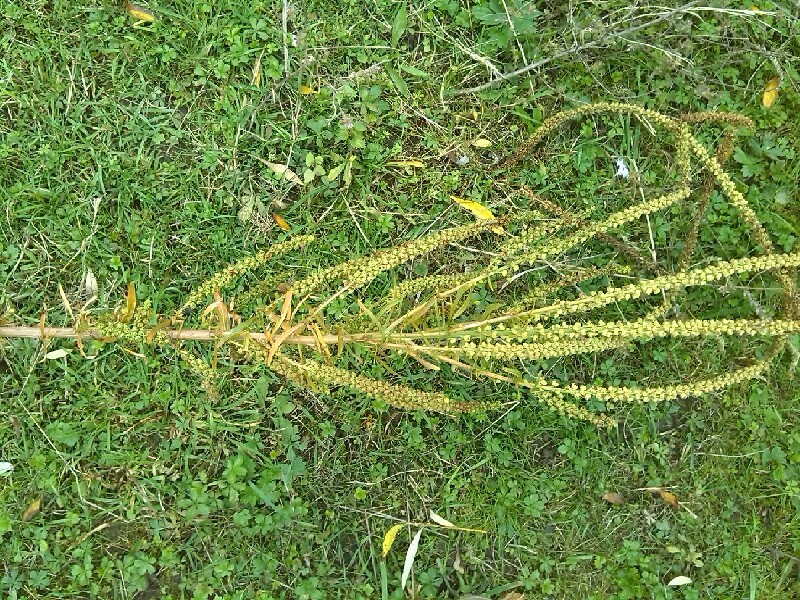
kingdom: Plantae
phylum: Tracheophyta
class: Magnoliopsida
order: Brassicales
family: Resedaceae
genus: Reseda
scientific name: Reseda luteola
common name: Weld
